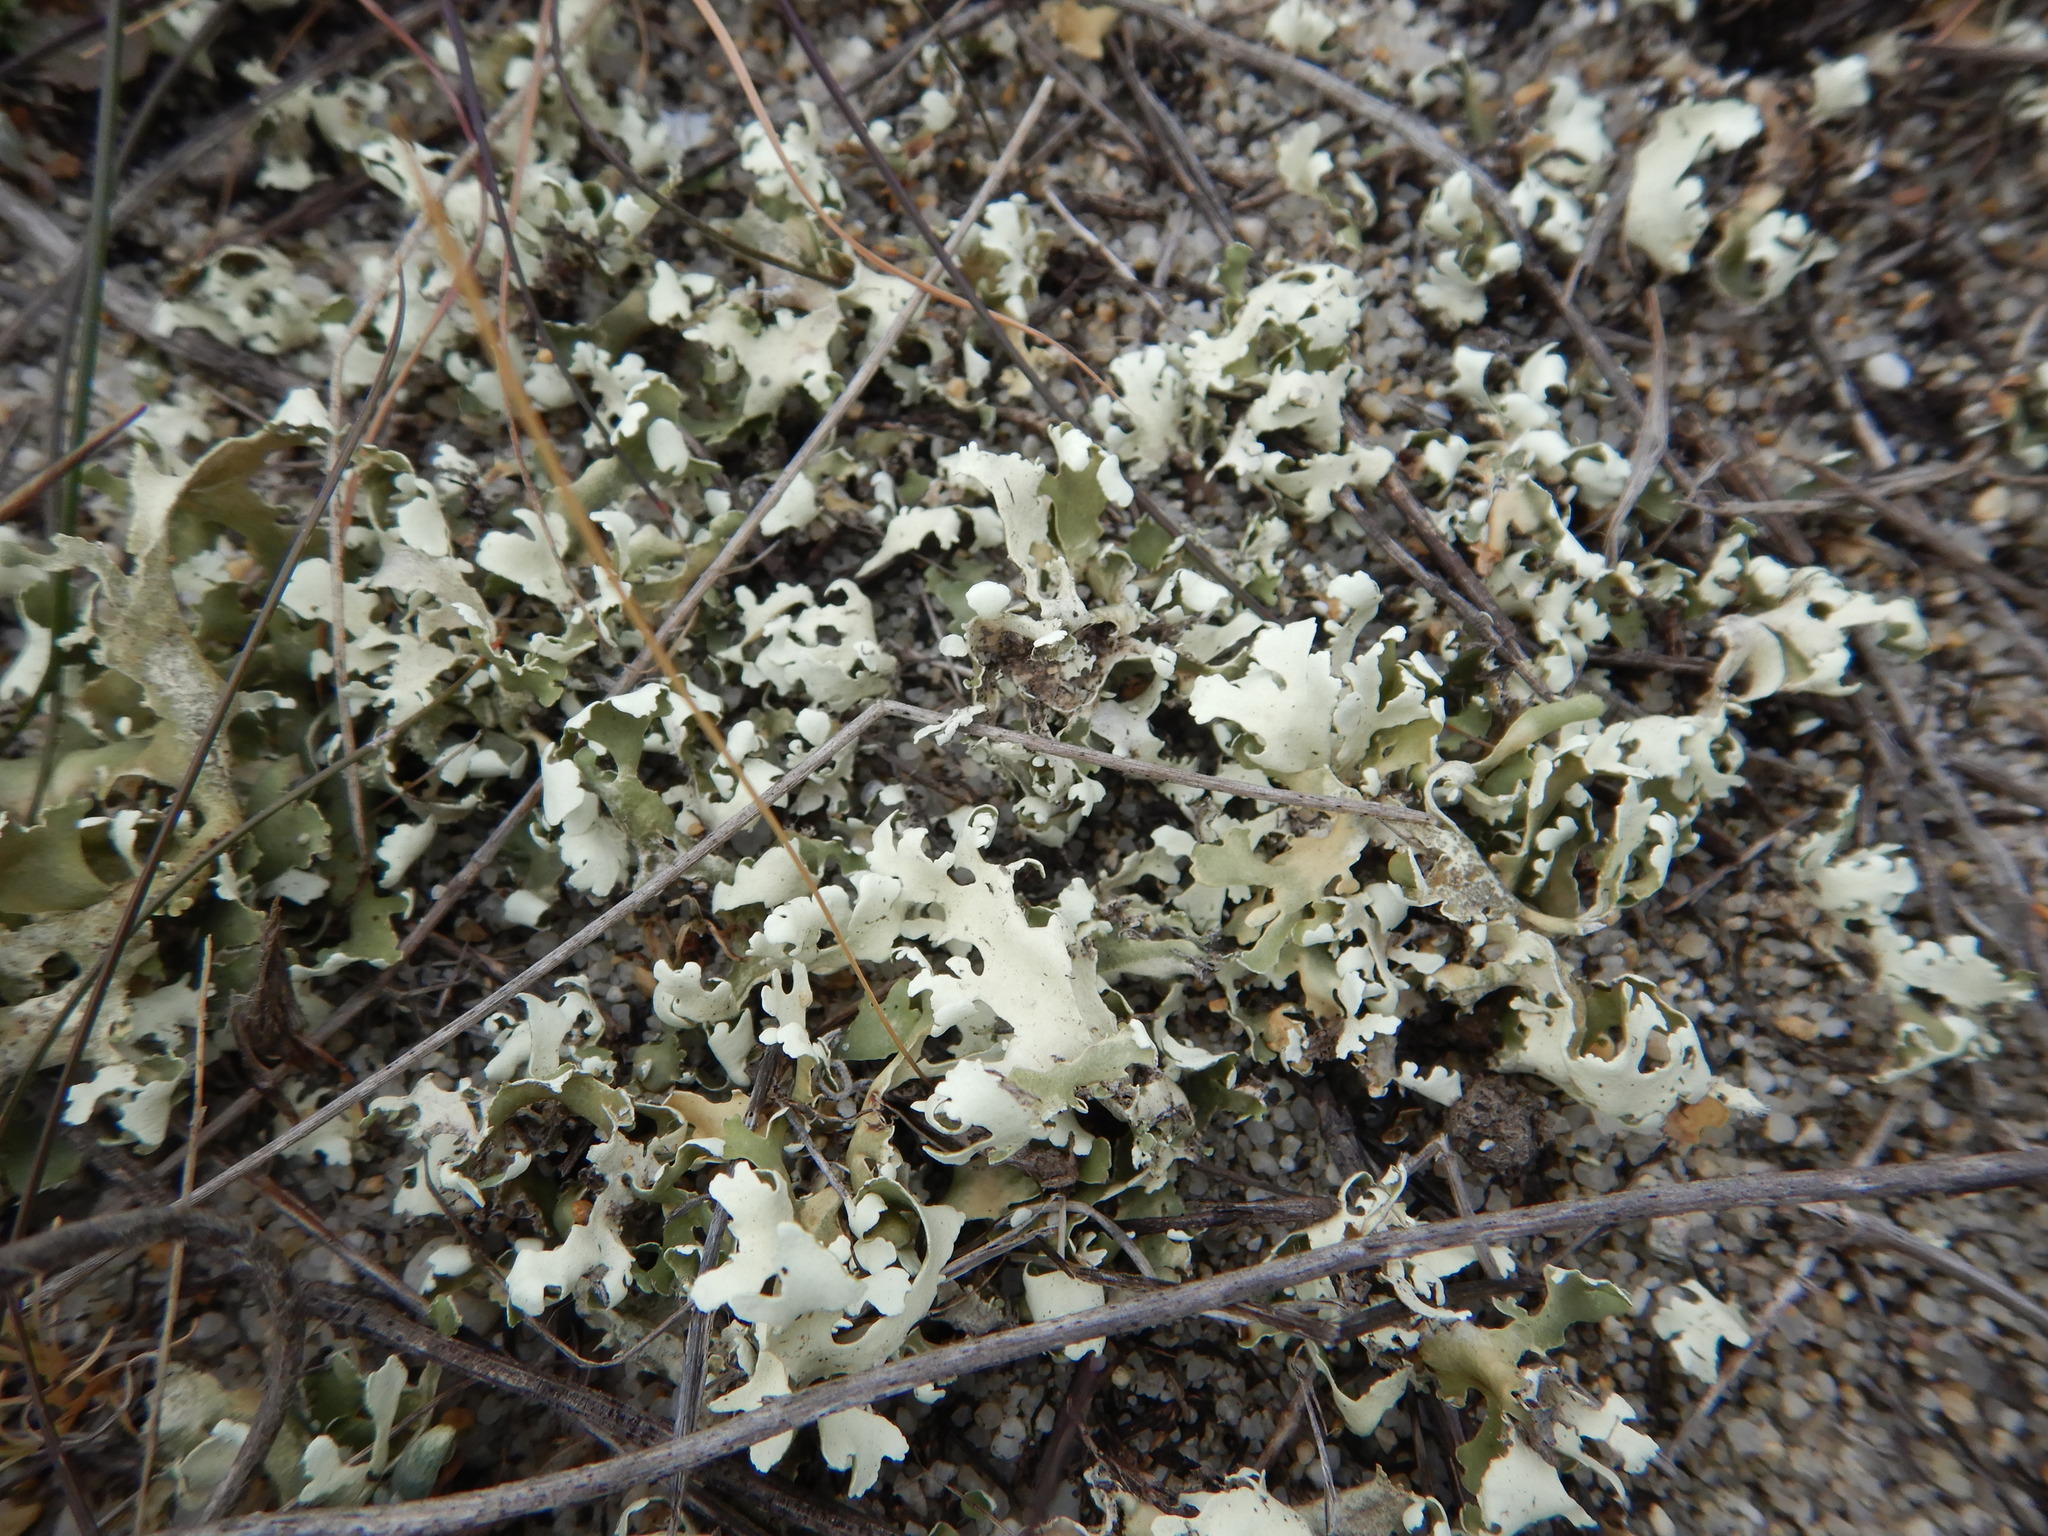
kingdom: Fungi
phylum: Ascomycota
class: Lecanoromycetes
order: Lecanorales
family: Cladoniaceae
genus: Cladonia
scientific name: Cladonia foliacea
